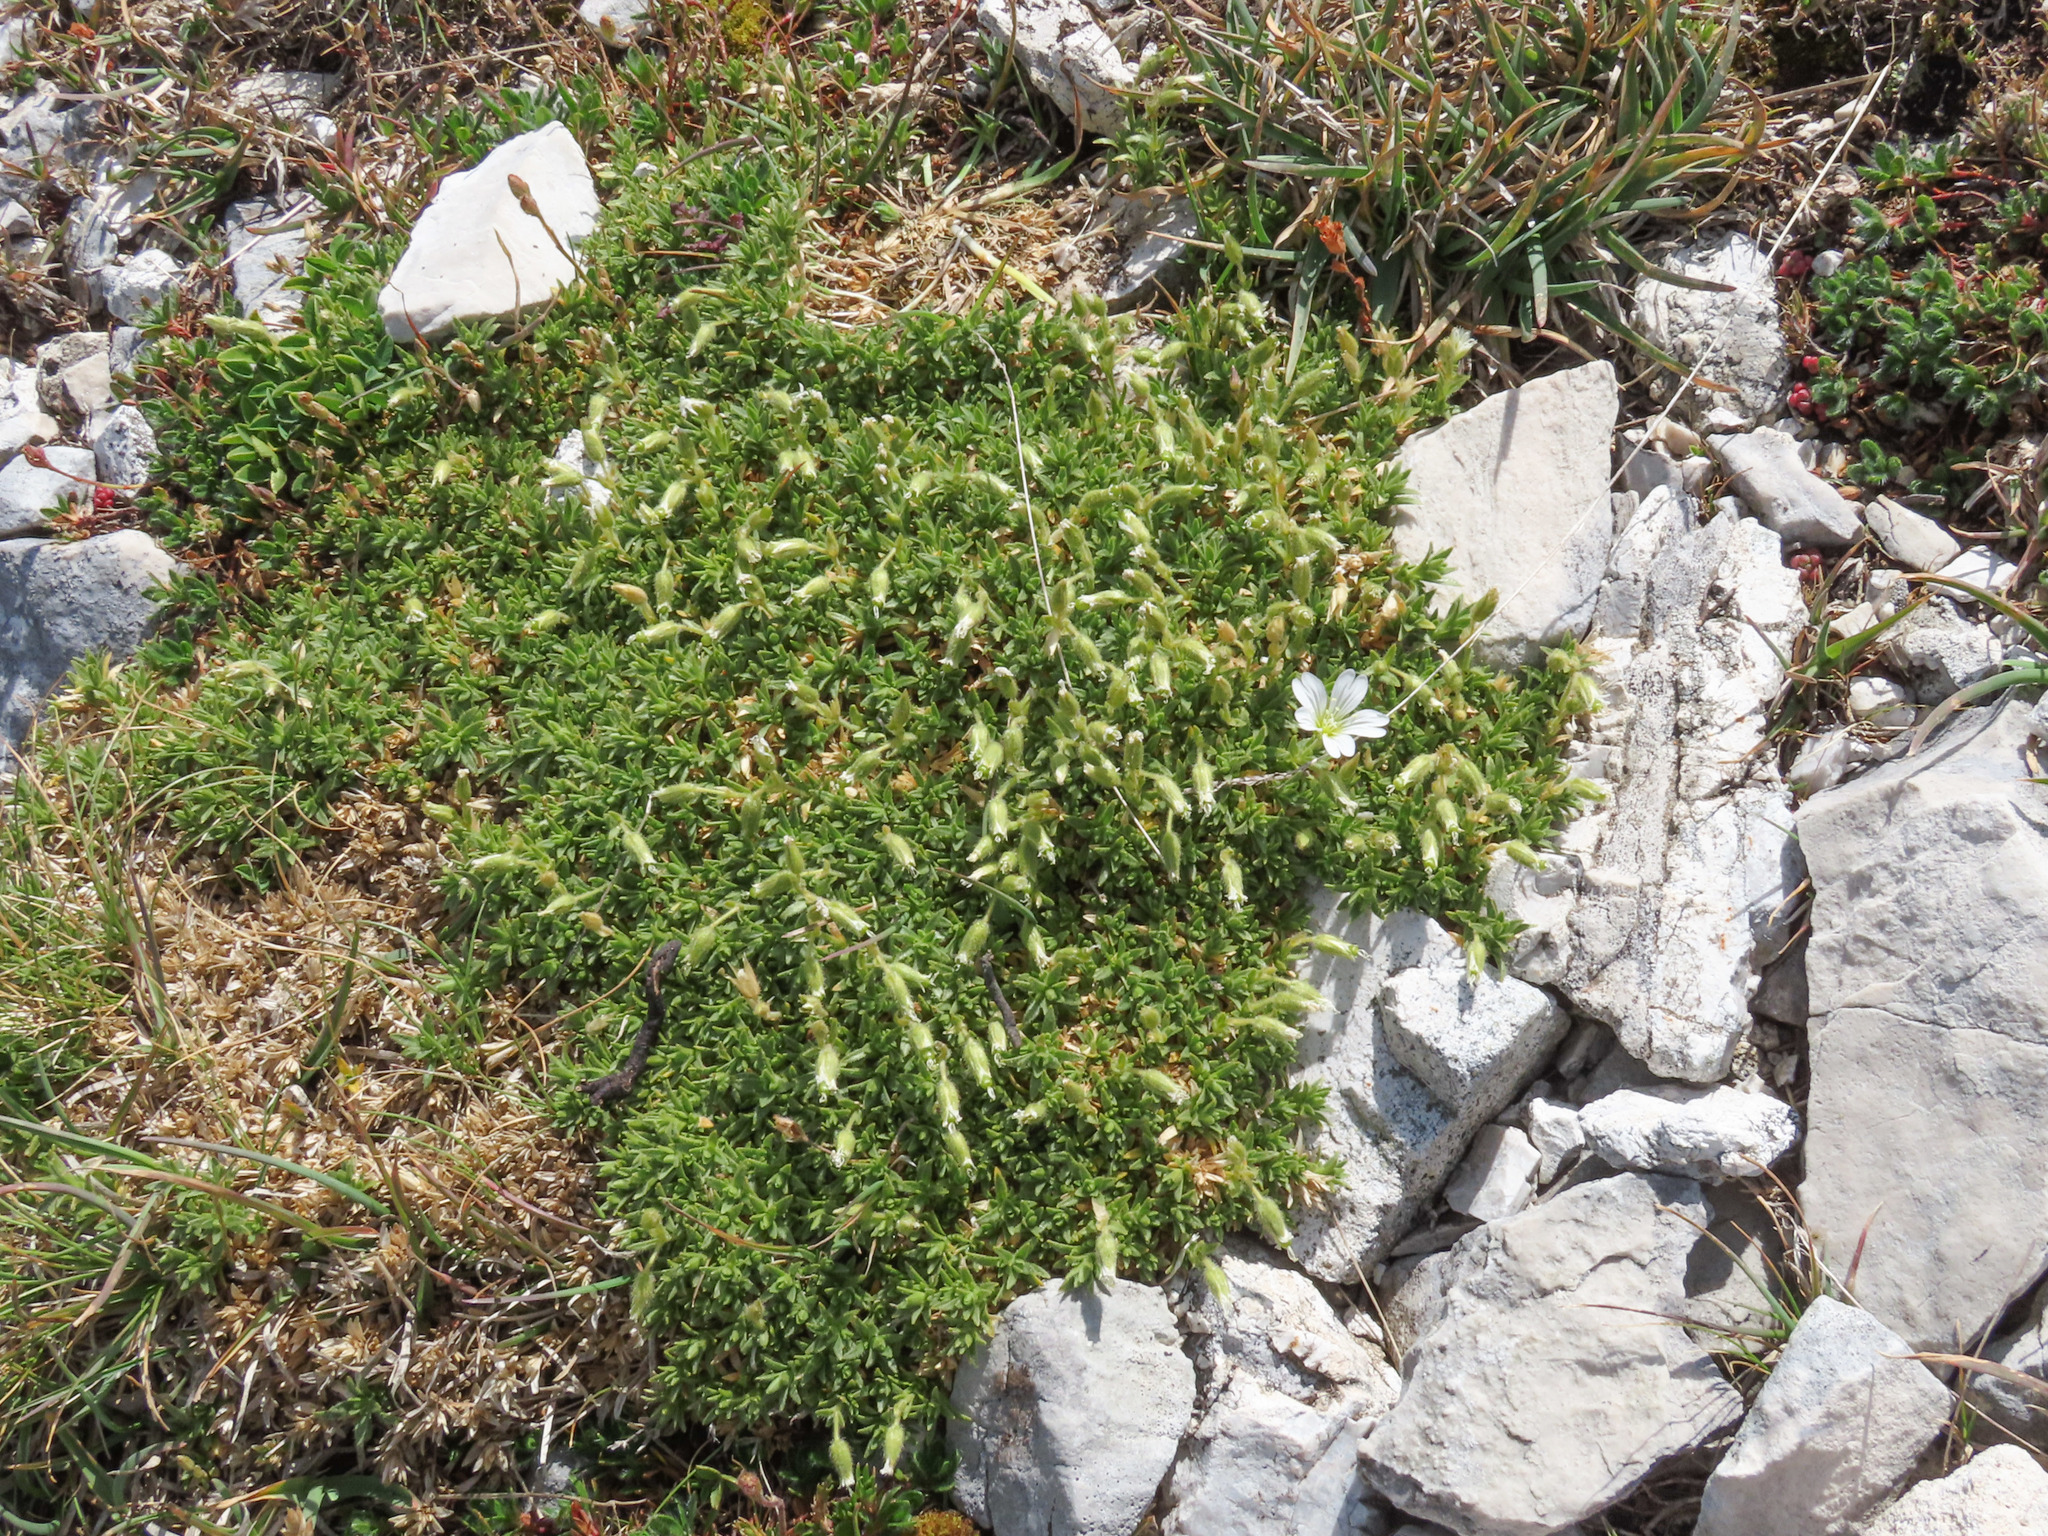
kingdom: Plantae
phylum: Tracheophyta
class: Magnoliopsida
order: Caryophyllales
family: Caryophyllaceae
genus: Cerastium
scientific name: Cerastium thomasii
